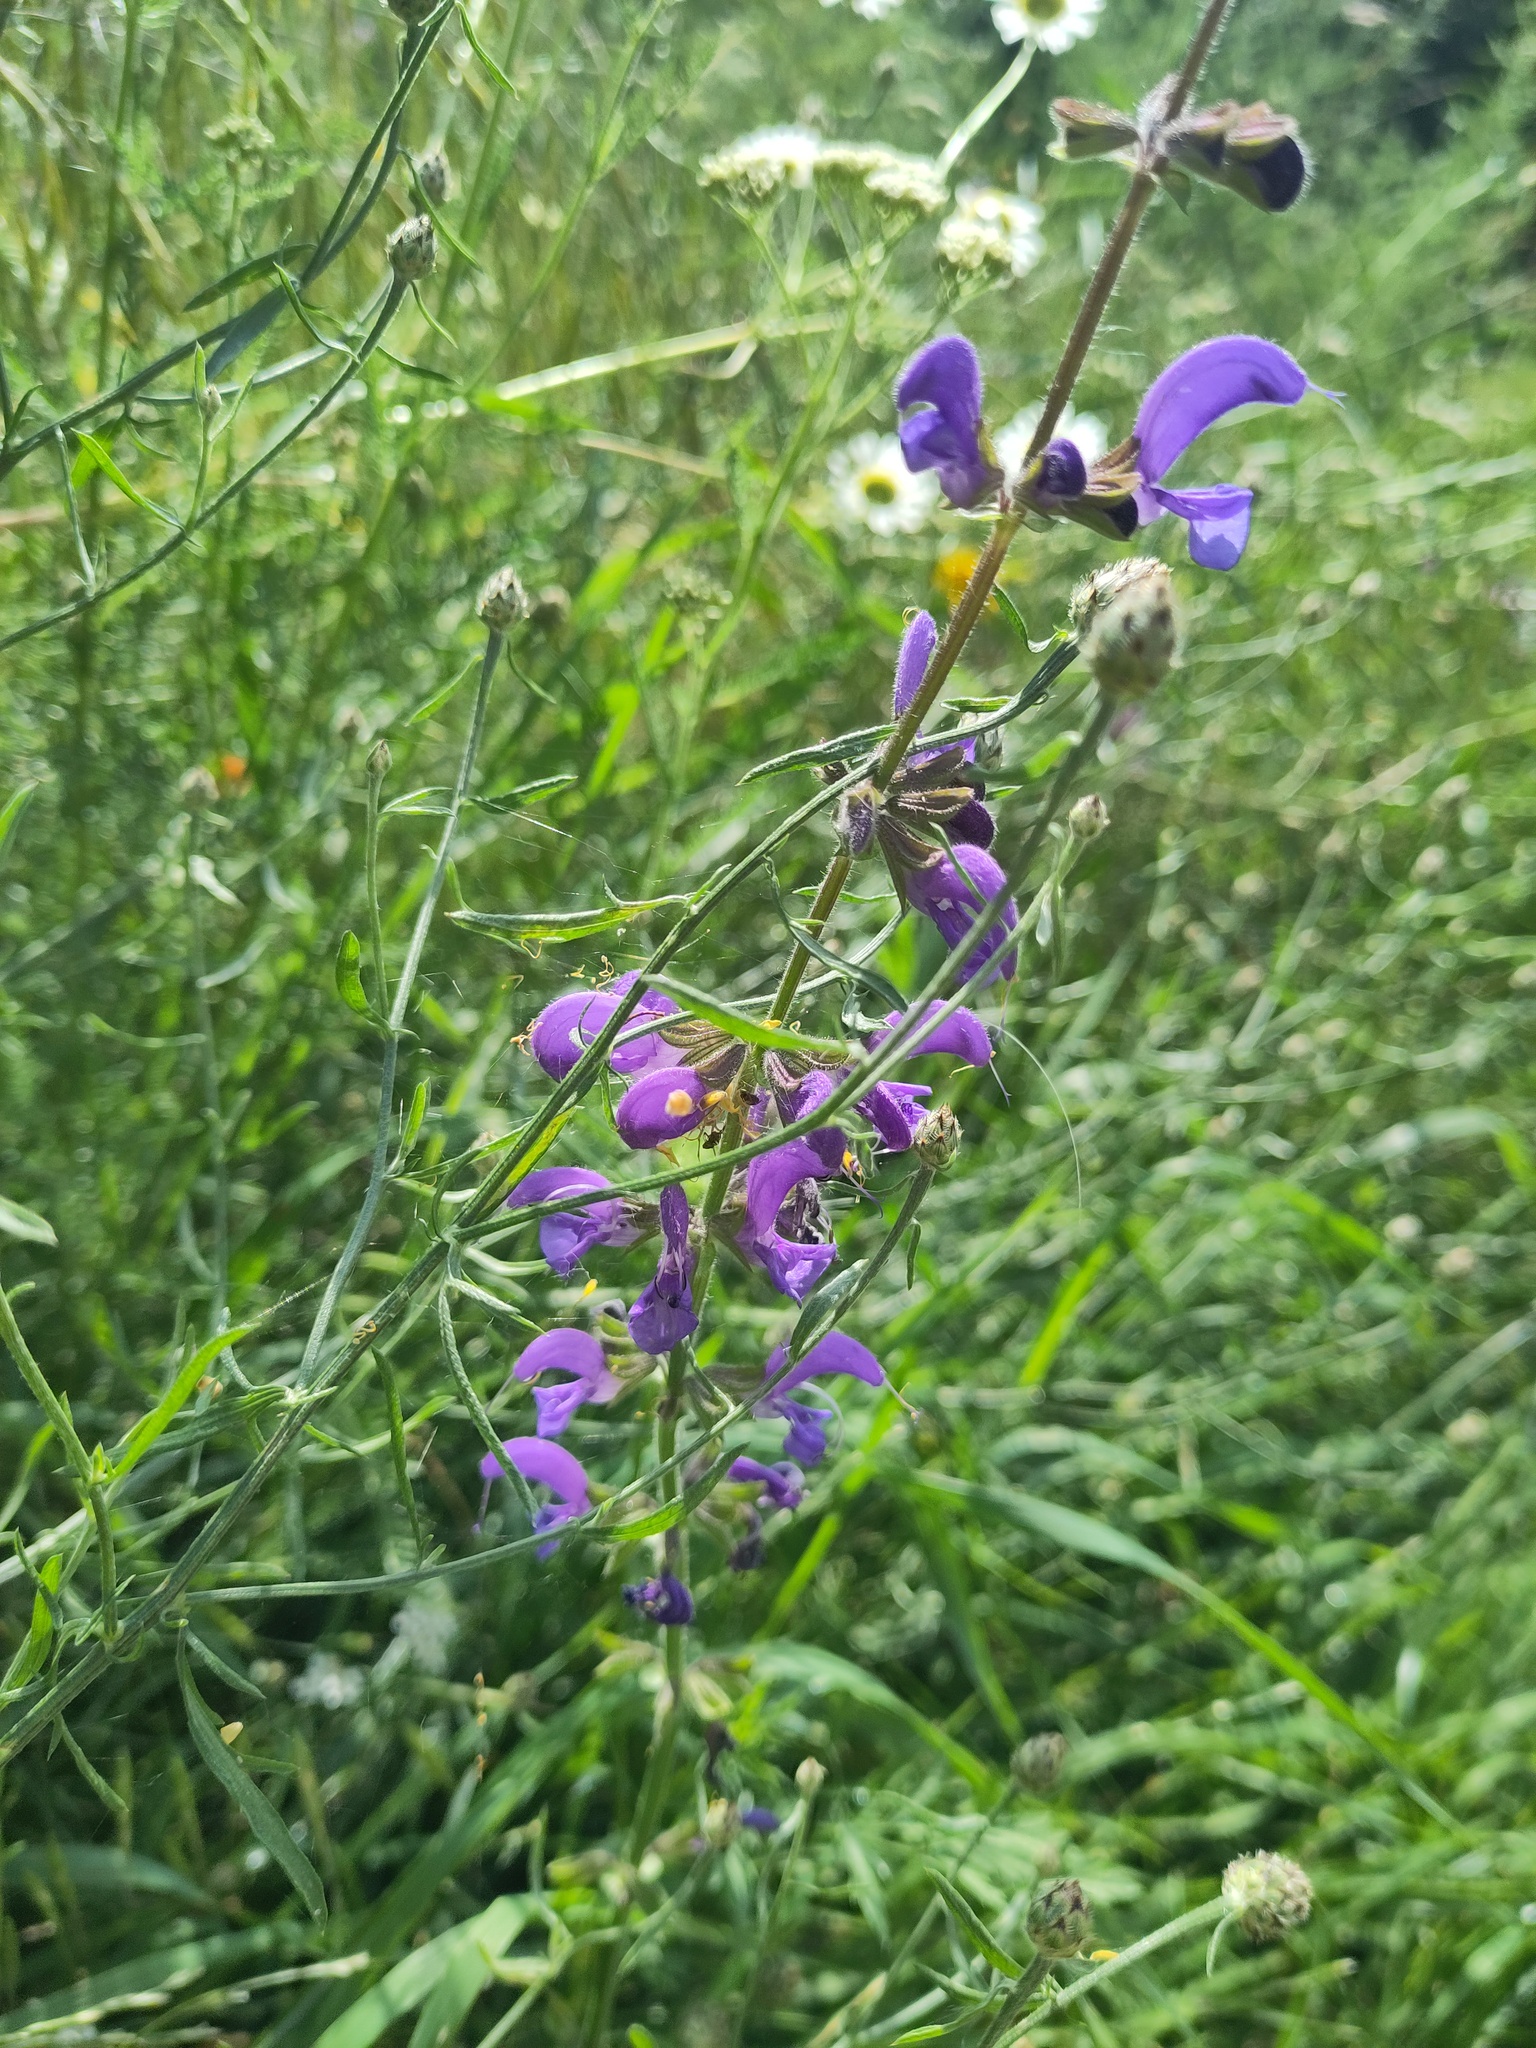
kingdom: Plantae
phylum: Tracheophyta
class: Magnoliopsida
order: Lamiales
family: Lamiaceae
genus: Salvia
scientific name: Salvia pratensis
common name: Meadow sage
